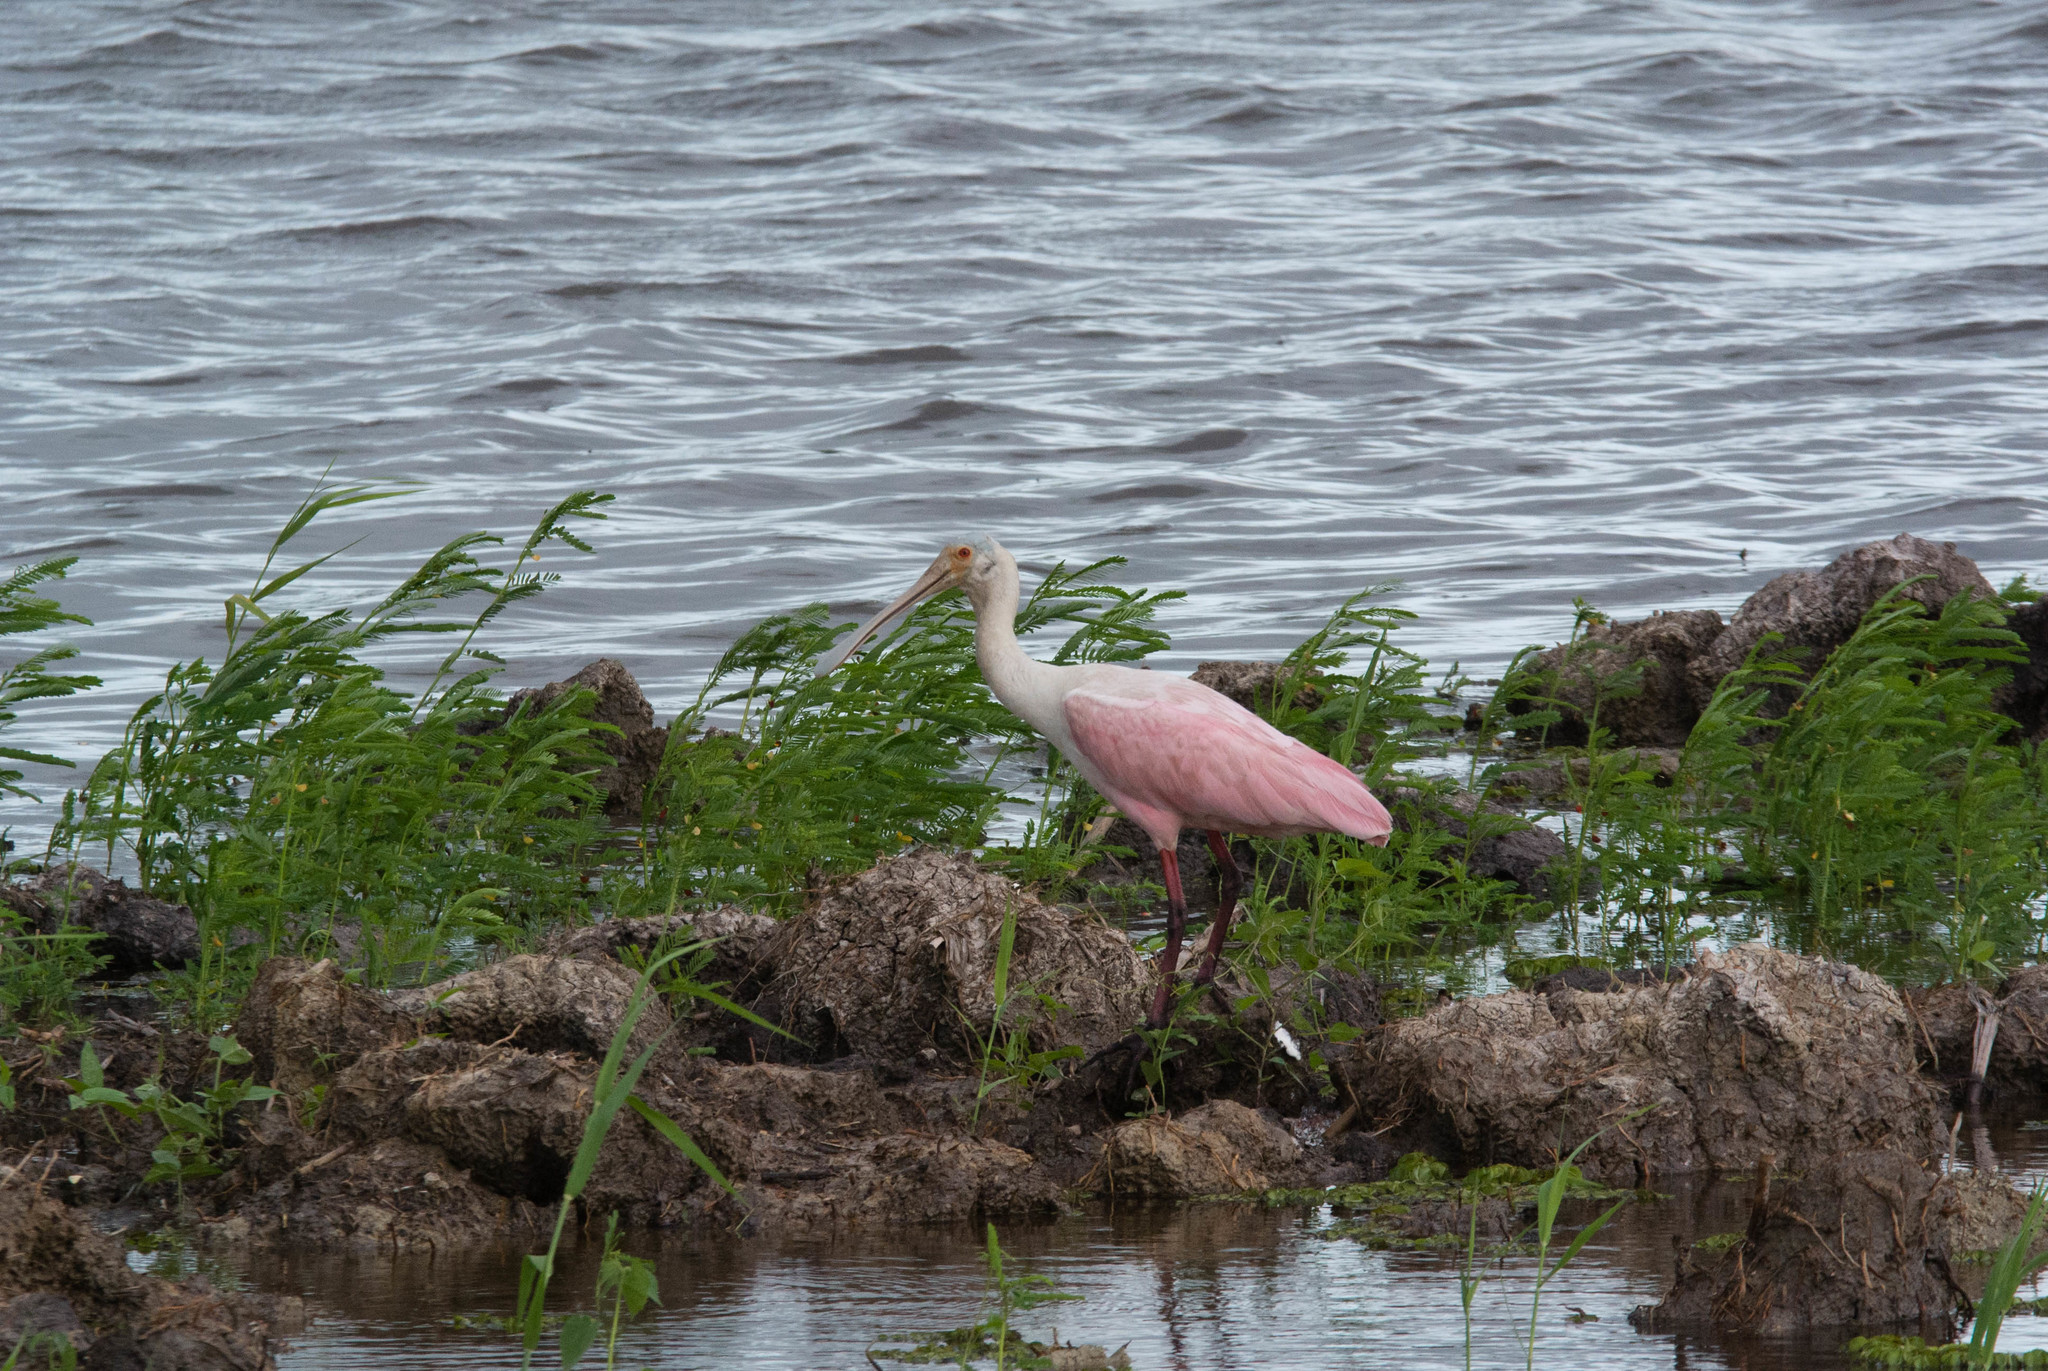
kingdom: Animalia
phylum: Chordata
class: Aves
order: Pelecaniformes
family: Threskiornithidae
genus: Platalea
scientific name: Platalea ajaja
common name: Roseate spoonbill
